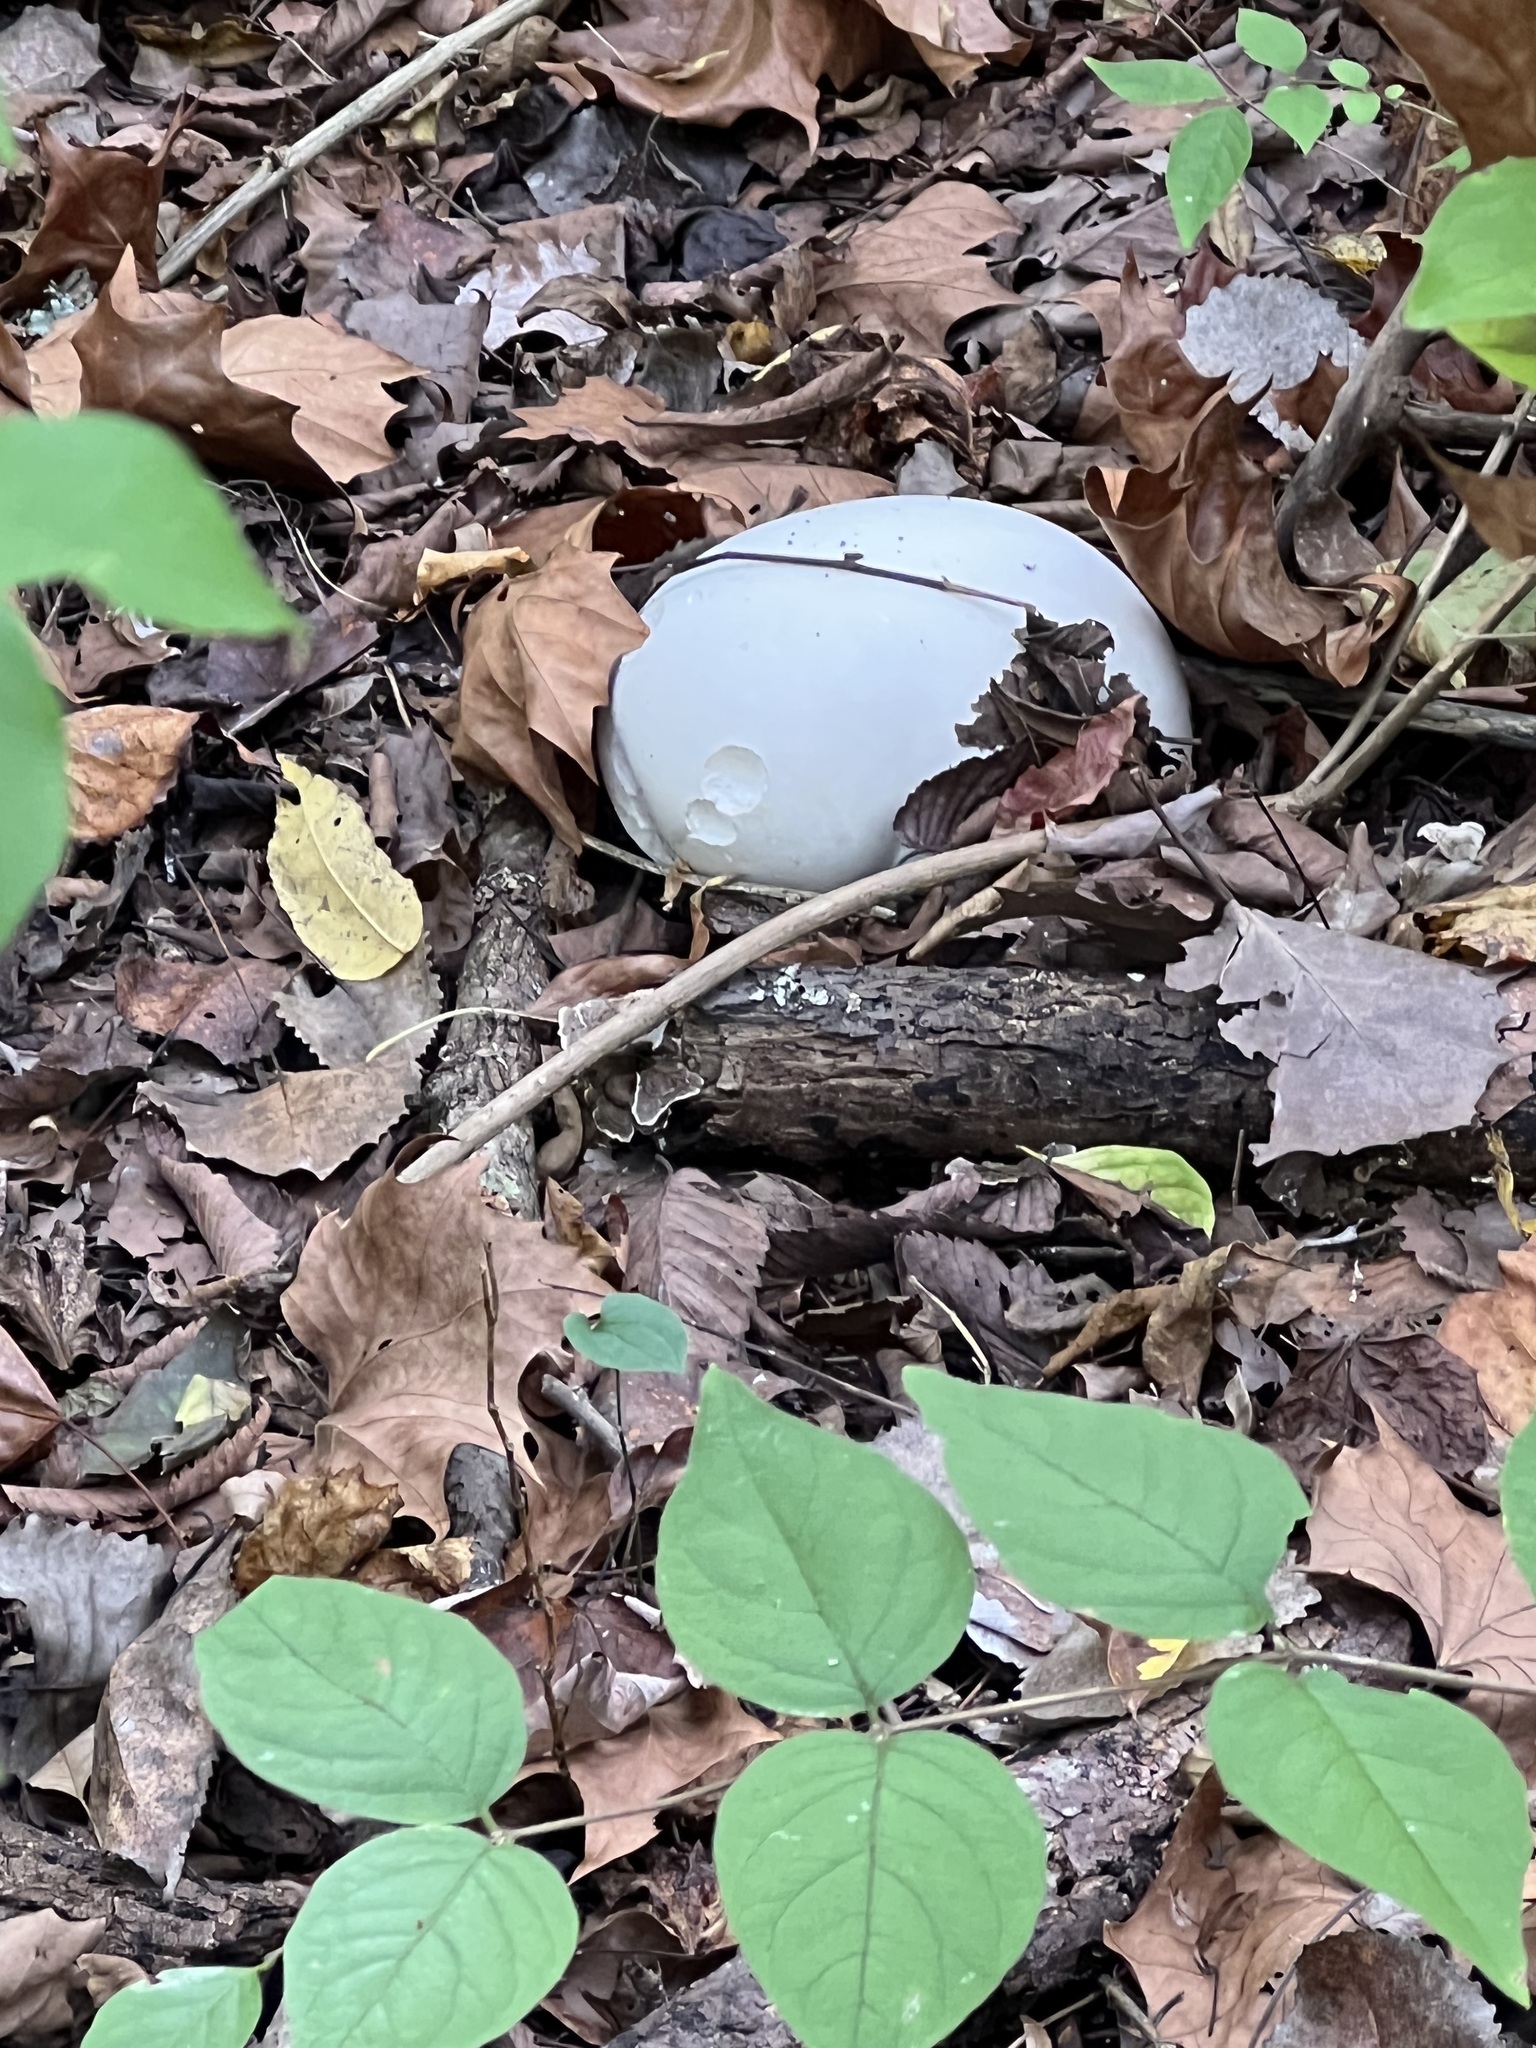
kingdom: Fungi
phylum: Basidiomycota
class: Agaricomycetes
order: Agaricales
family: Lycoperdaceae
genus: Calvatia
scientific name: Calvatia gigantea
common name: Giant puffball
